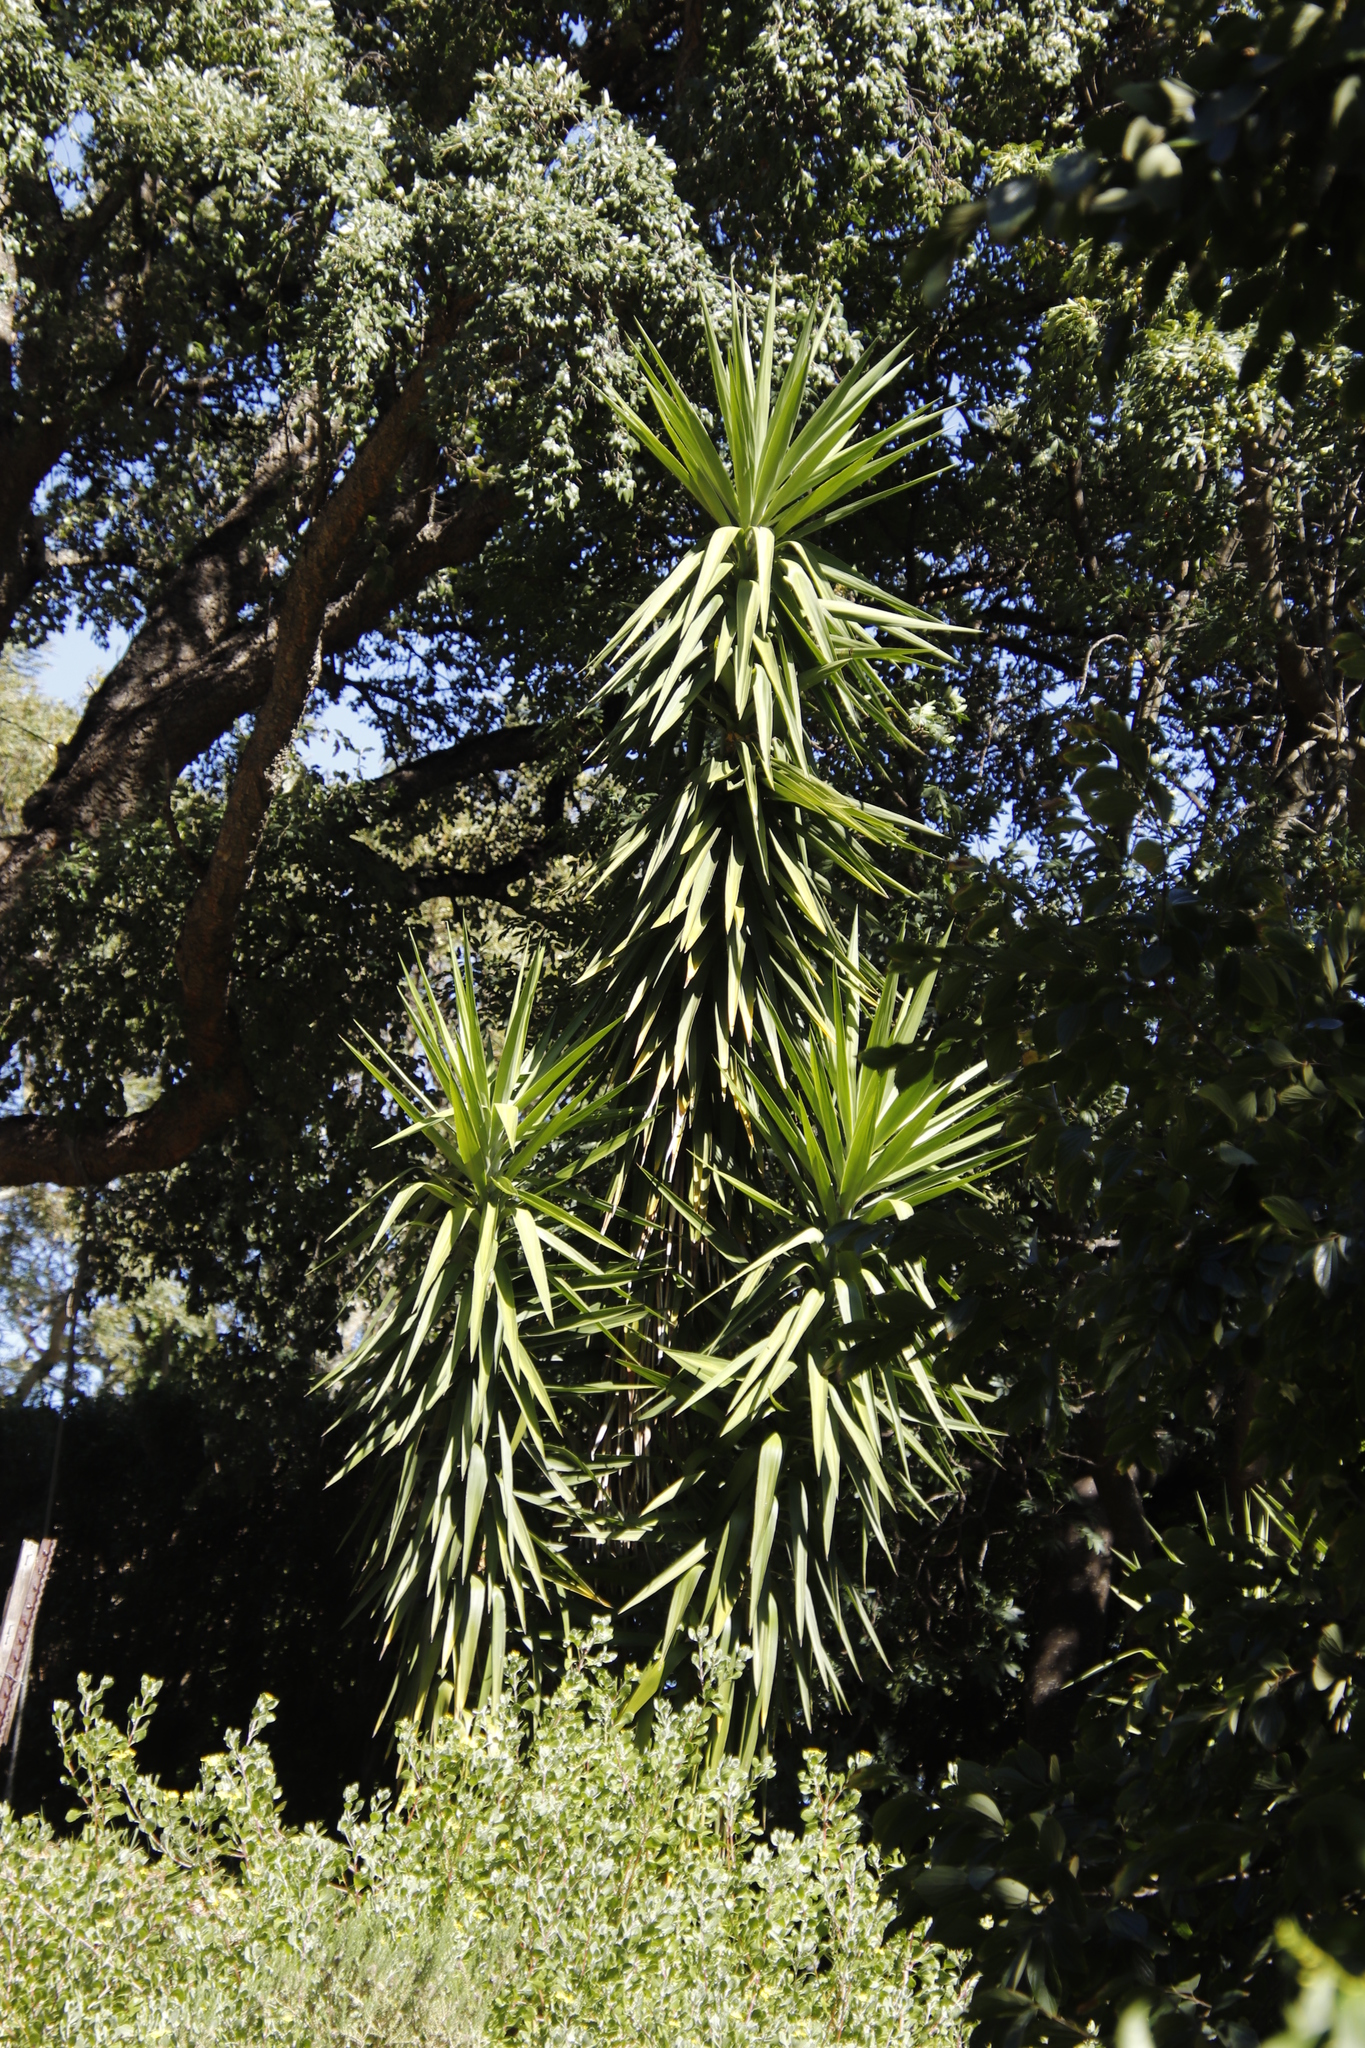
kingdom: Plantae
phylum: Tracheophyta
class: Liliopsida
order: Asparagales
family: Asparagaceae
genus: Yucca
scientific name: Yucca gigantea
